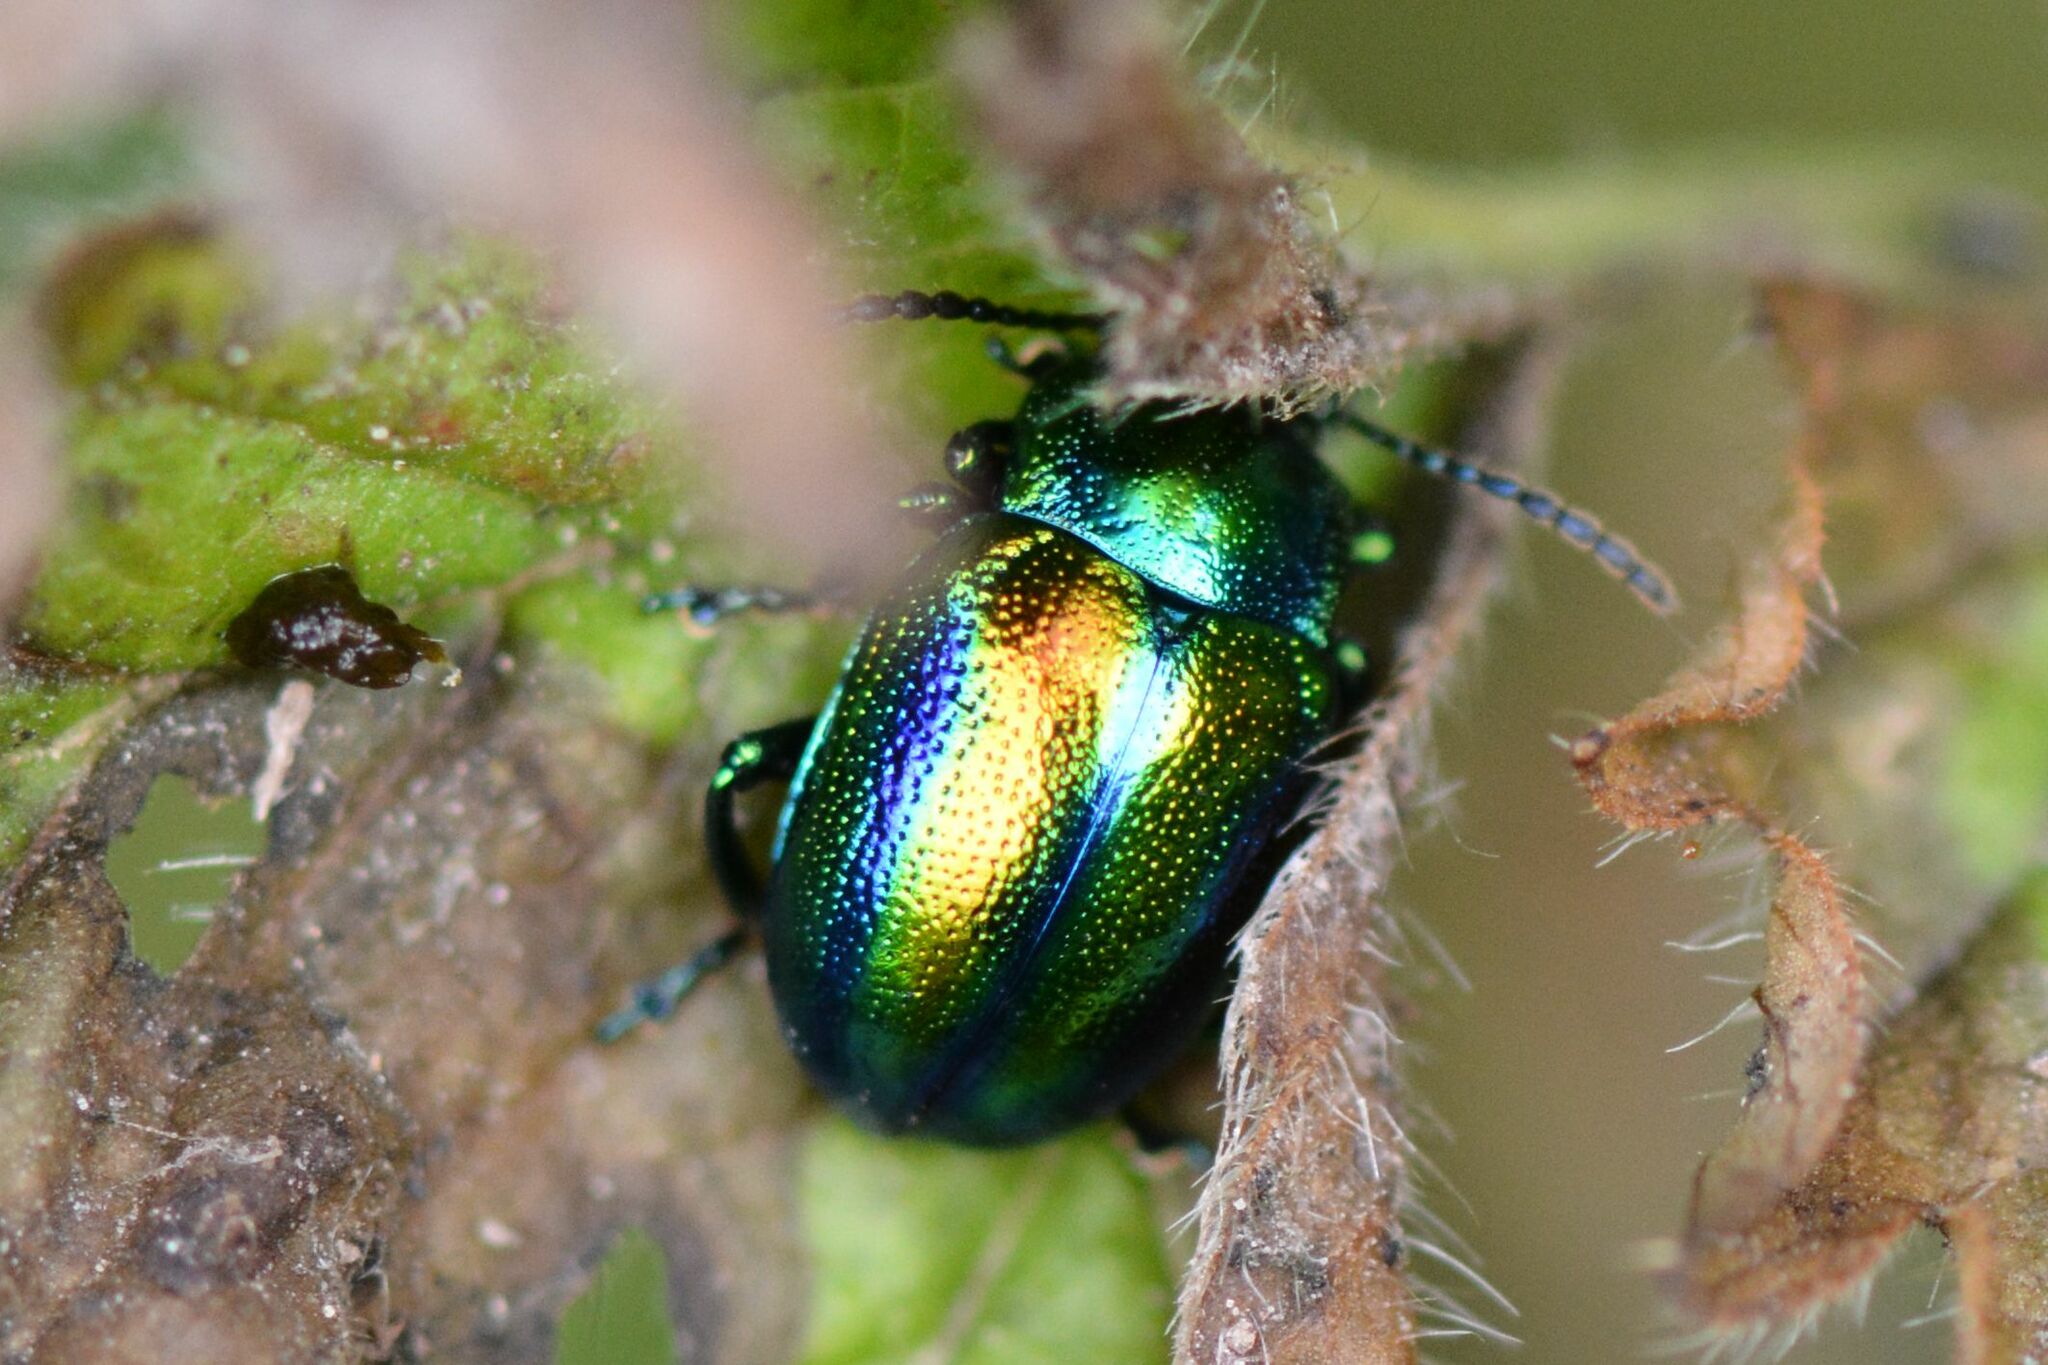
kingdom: Animalia
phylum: Arthropoda
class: Insecta
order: Coleoptera
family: Chrysomelidae
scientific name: Chrysomelidae
